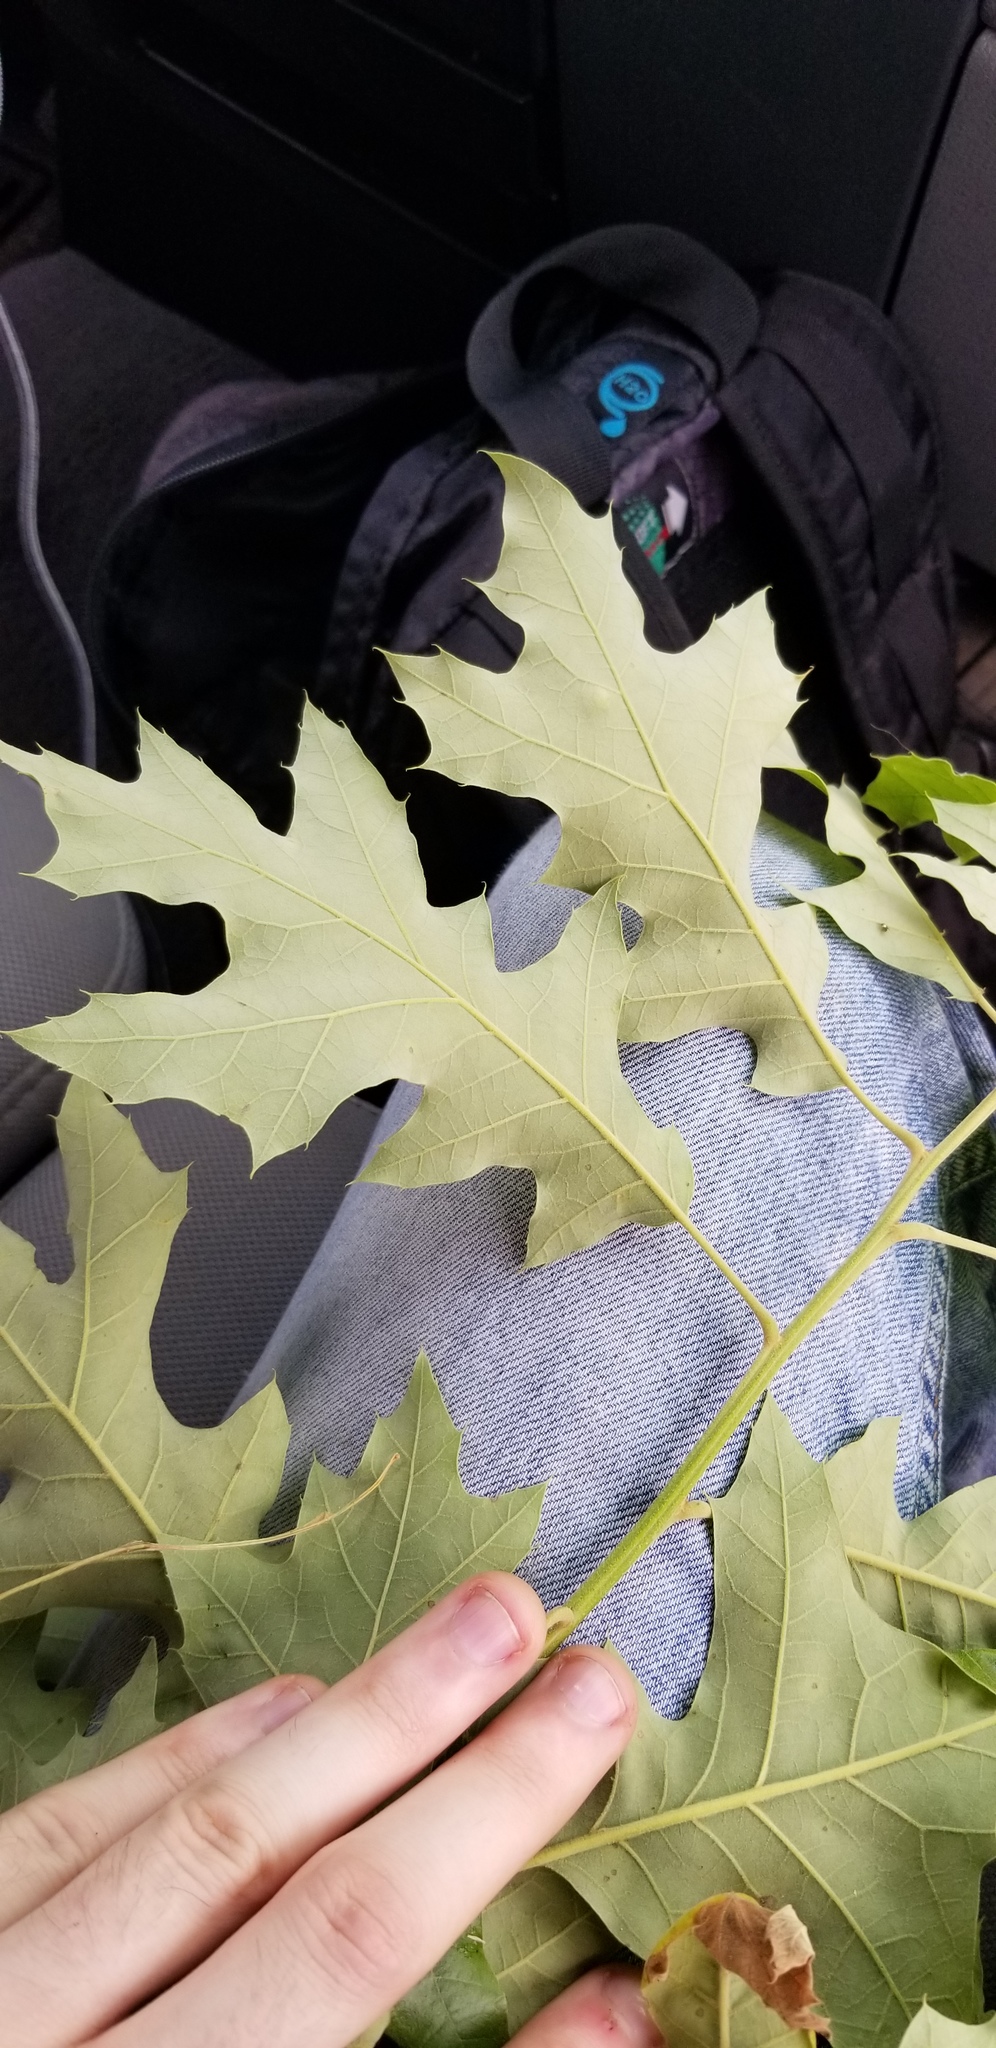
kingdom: Plantae
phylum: Tracheophyta
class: Magnoliopsida
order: Fagales
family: Fagaceae
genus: Quercus
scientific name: Quercus velutina
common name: Black oak
